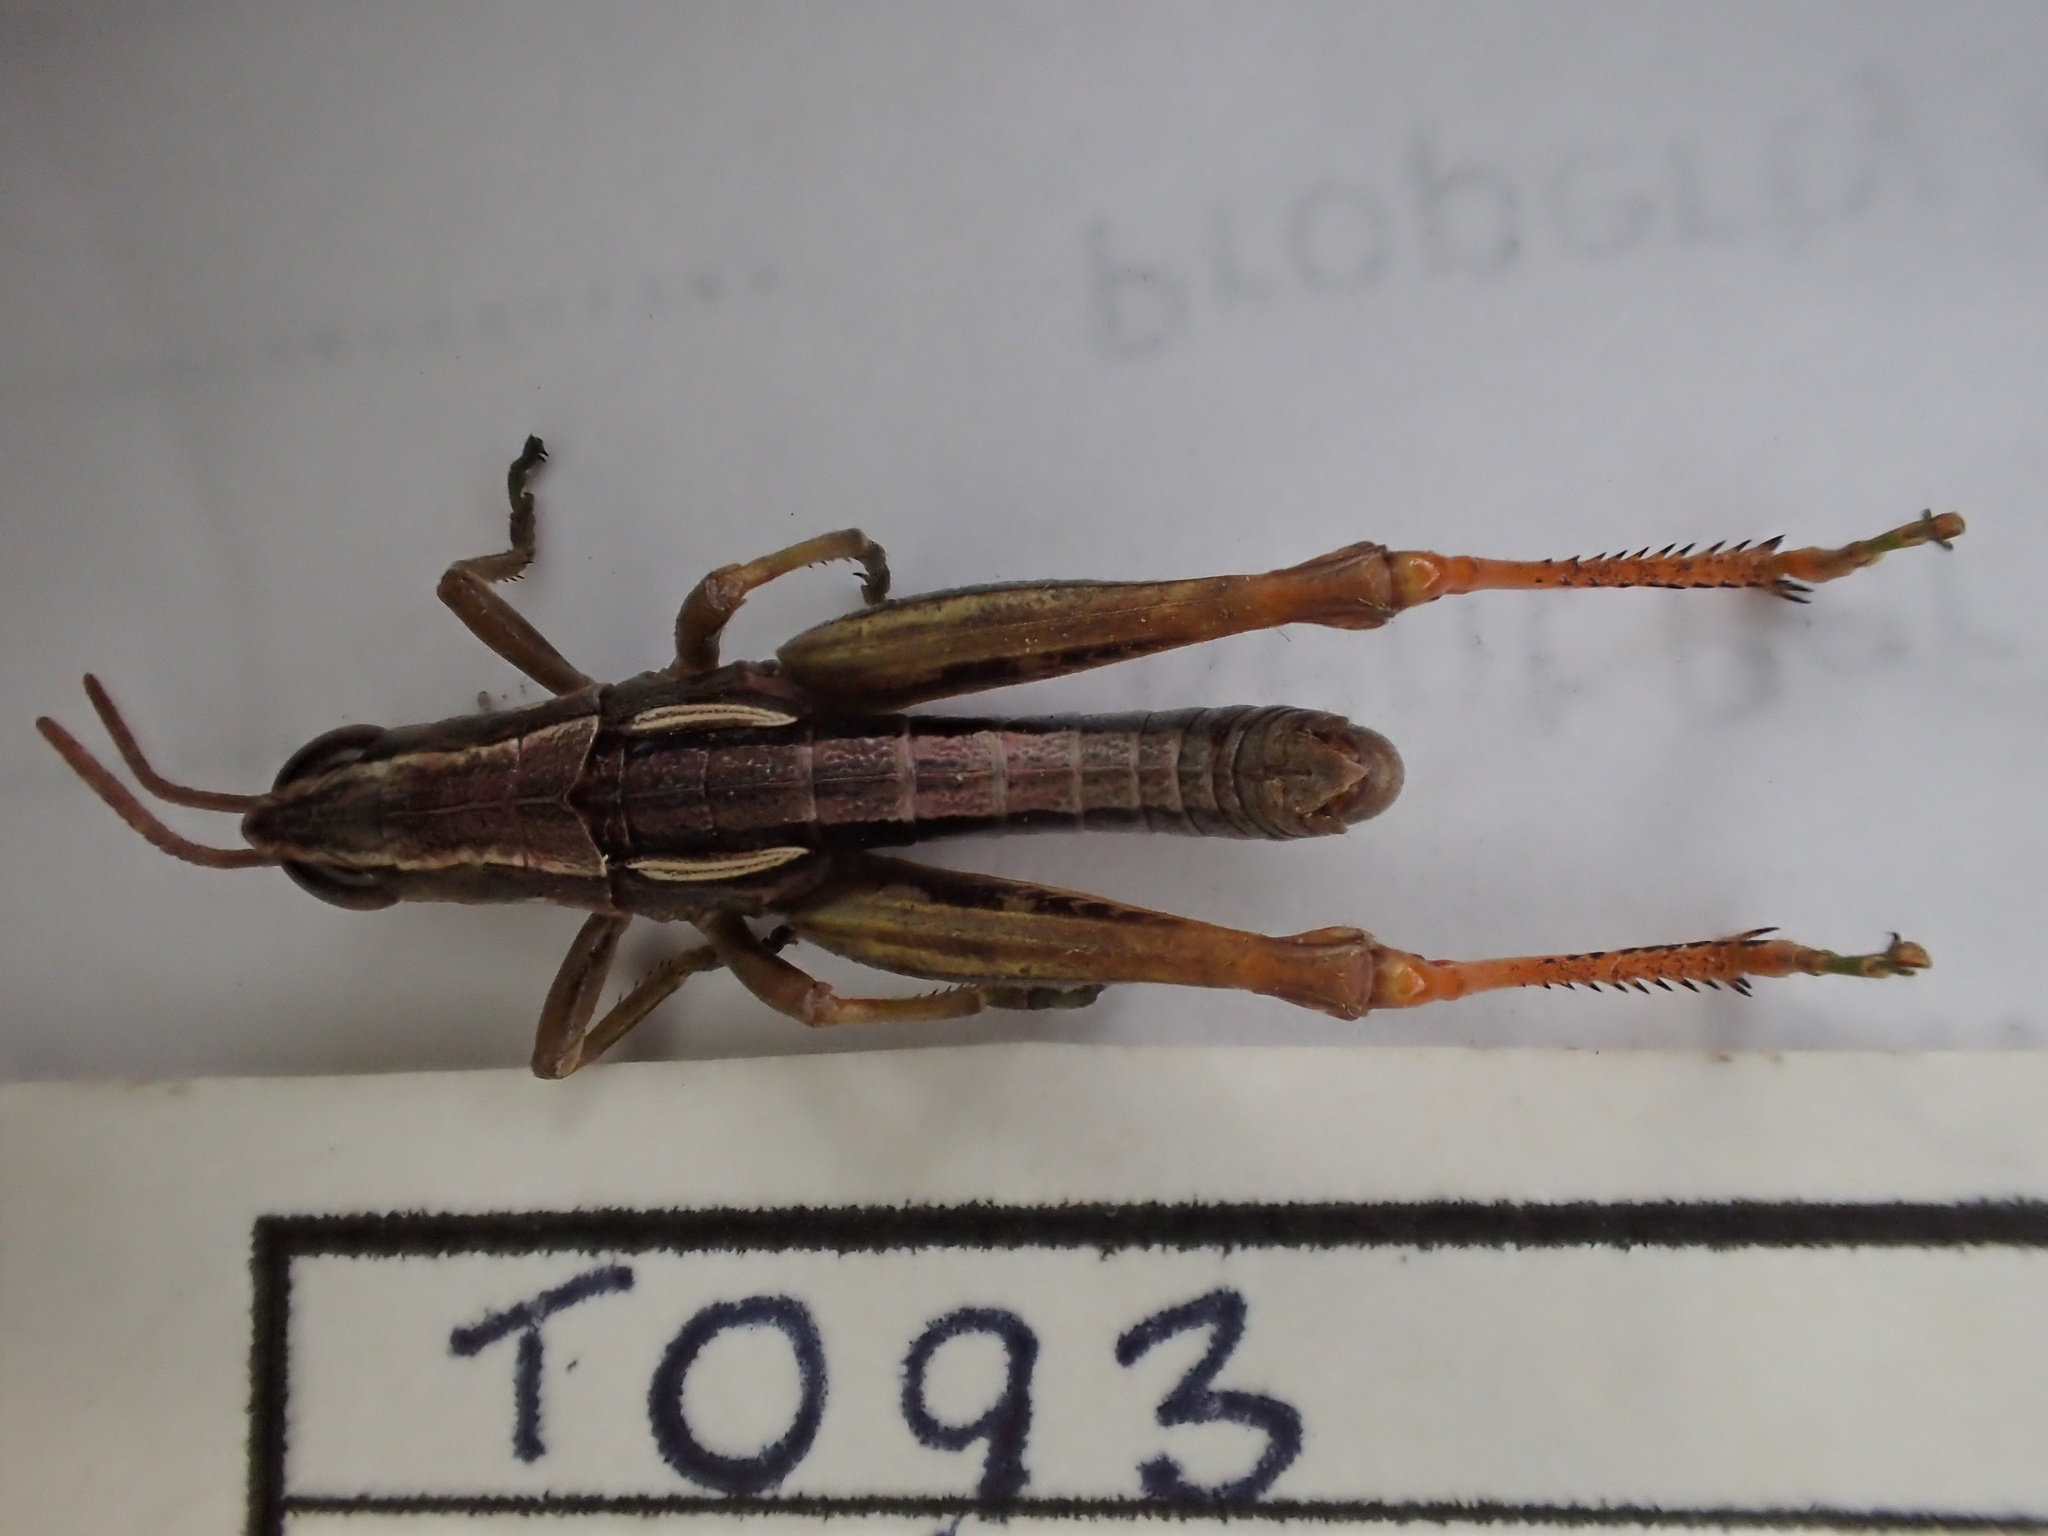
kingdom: Animalia
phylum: Arthropoda
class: Insecta
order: Orthoptera
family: Acrididae
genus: Russalpia
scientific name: Russalpia albertisi
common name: Tassie hopper
